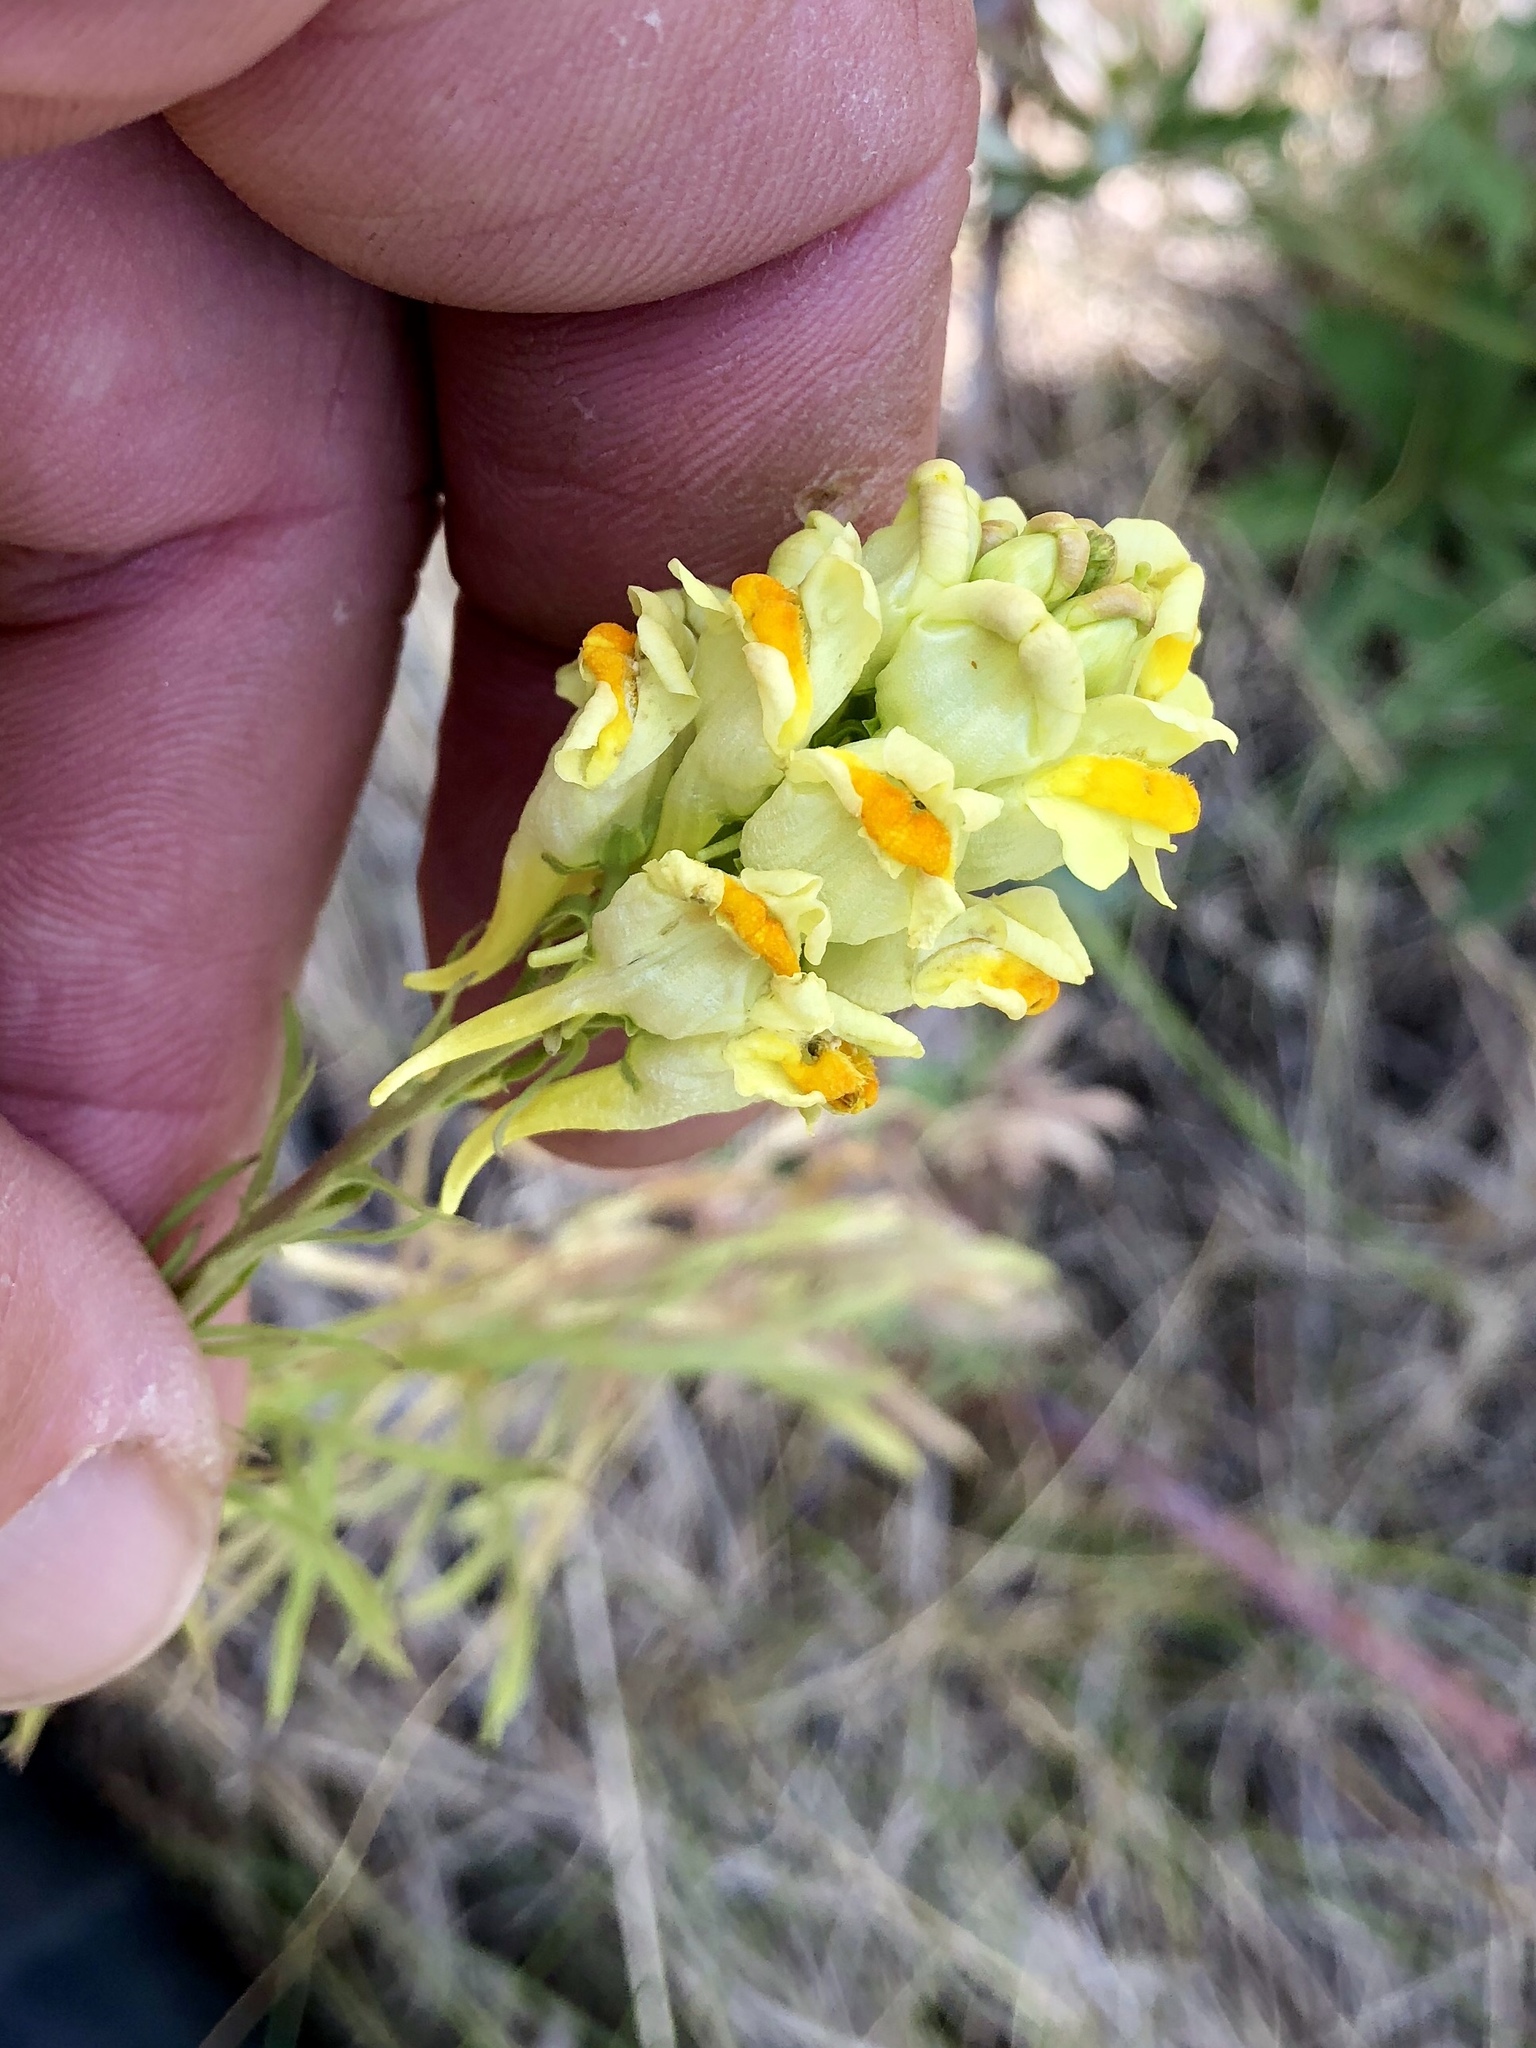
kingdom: Plantae
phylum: Tracheophyta
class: Magnoliopsida
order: Lamiales
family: Plantaginaceae
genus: Linaria
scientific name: Linaria vulgaris
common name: Butter and eggs
